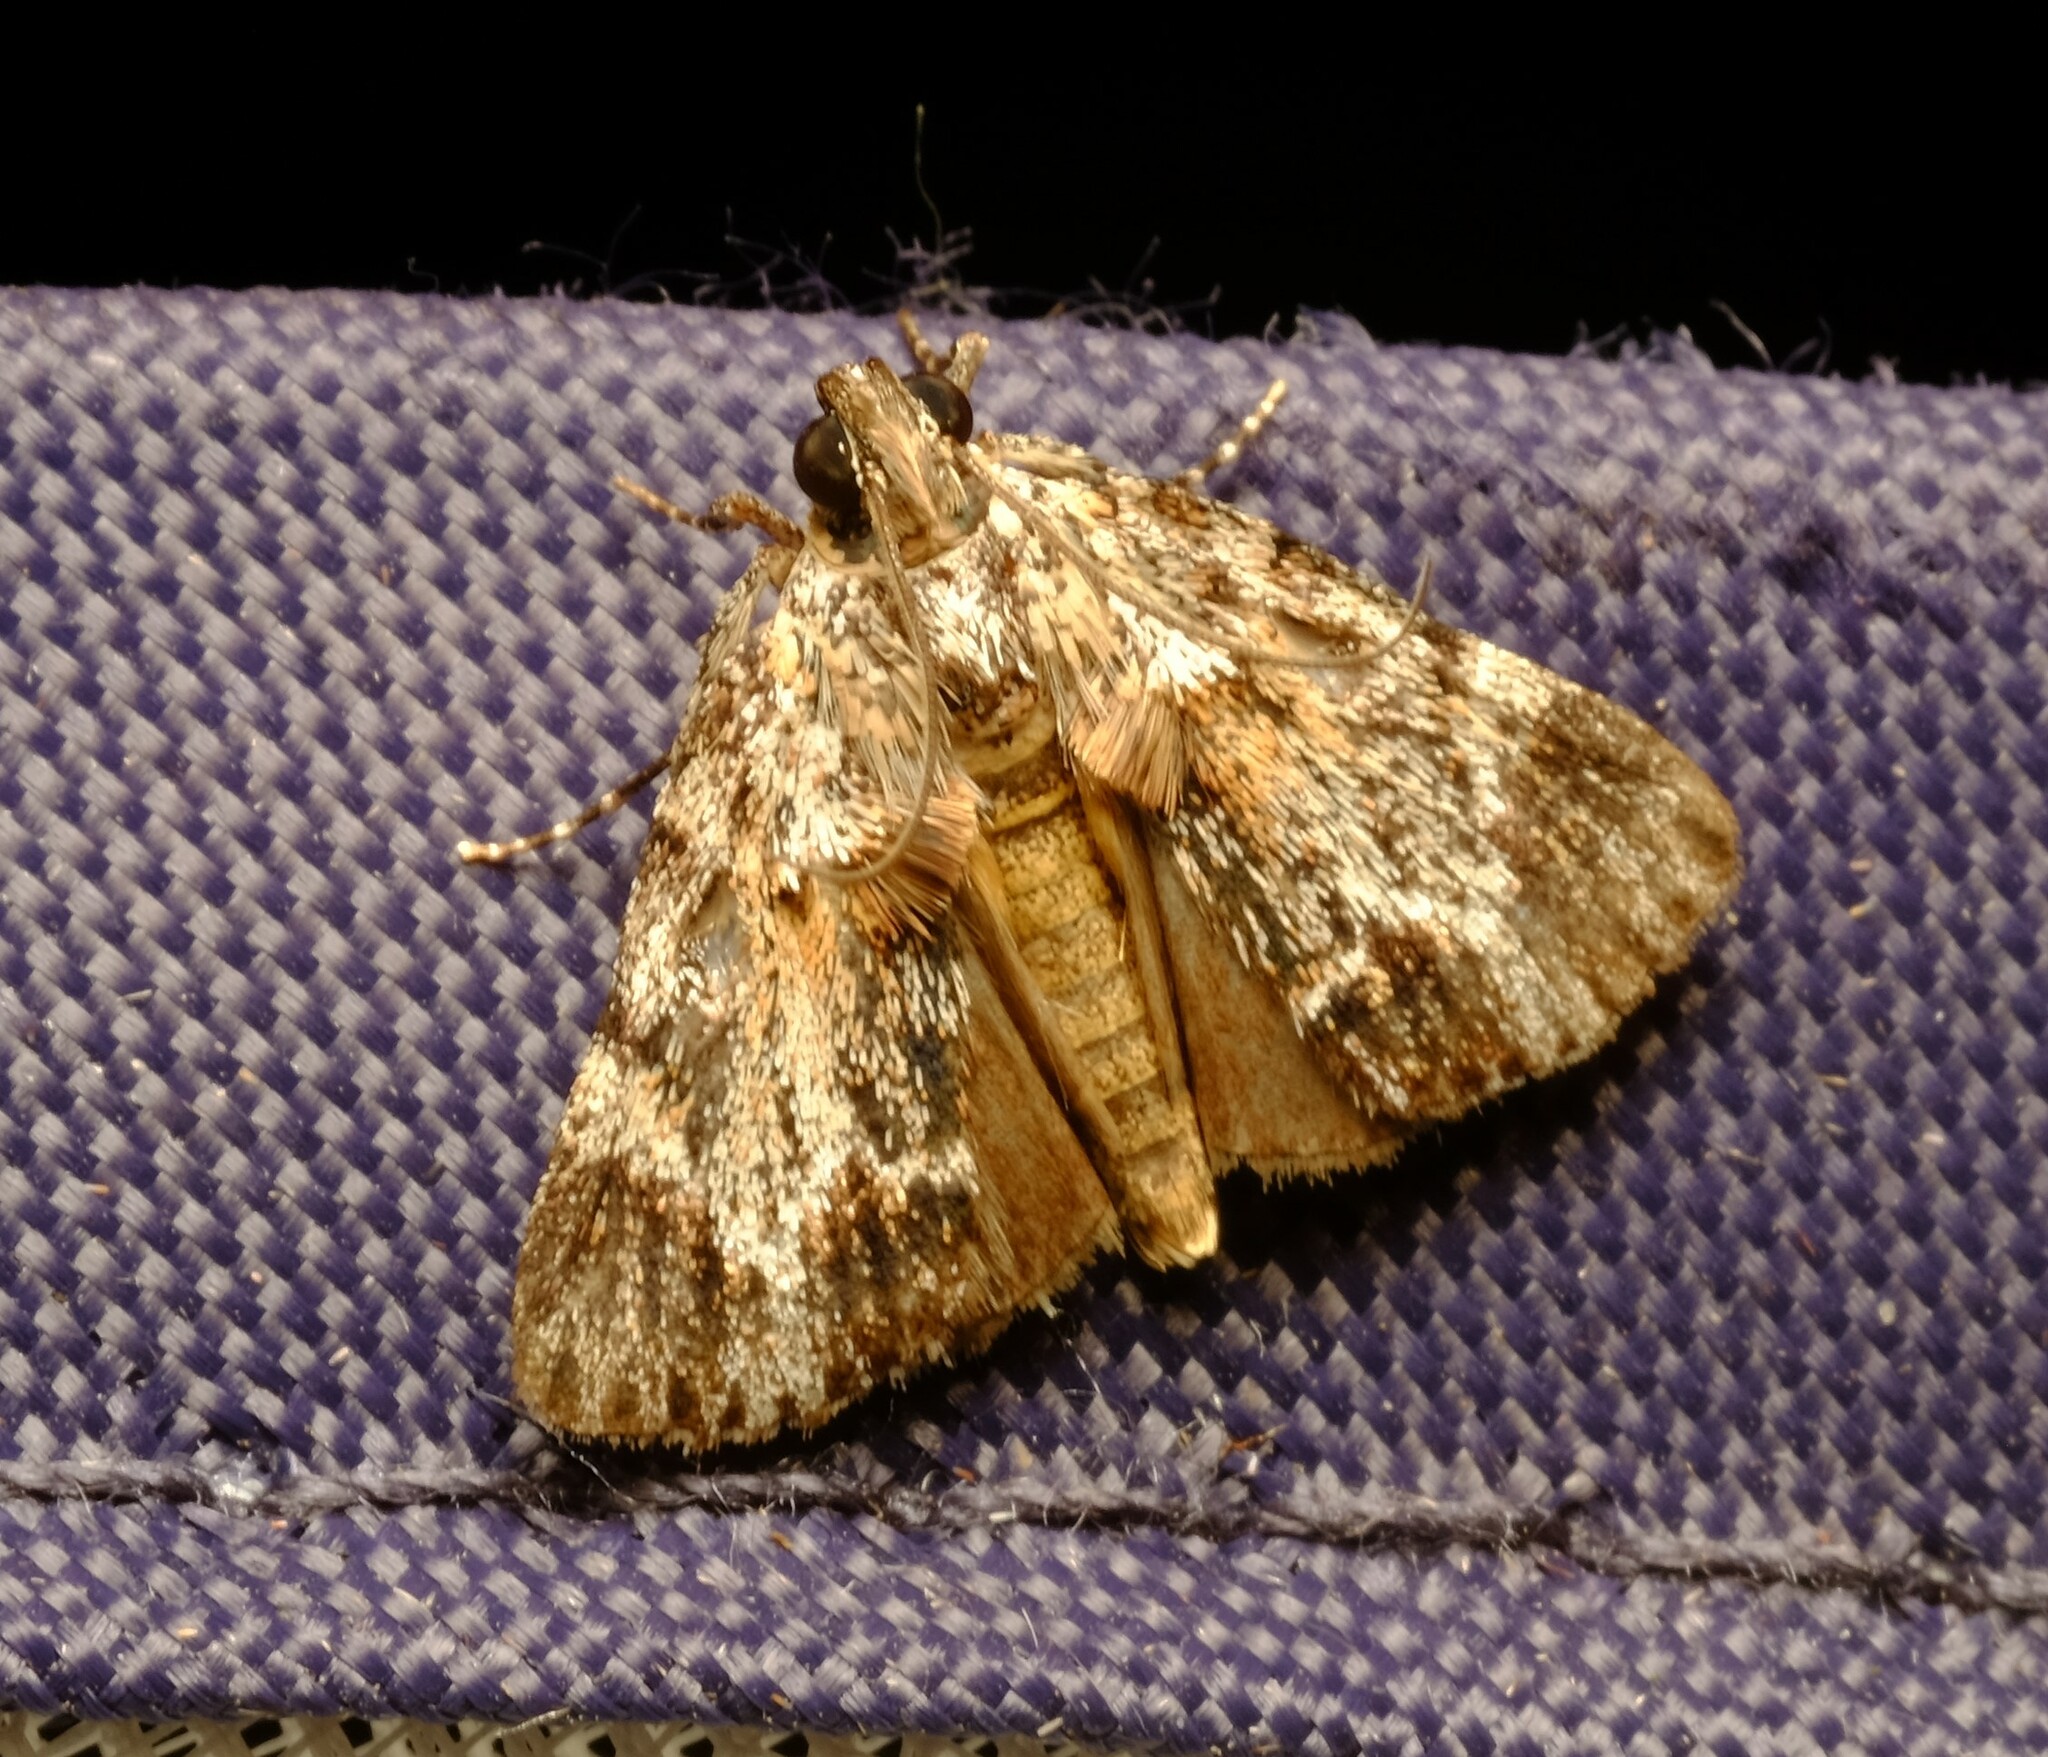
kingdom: Animalia
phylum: Arthropoda
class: Insecta
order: Lepidoptera
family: Pyralidae
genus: Spectrotrota
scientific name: Spectrotrota fimbrialis
